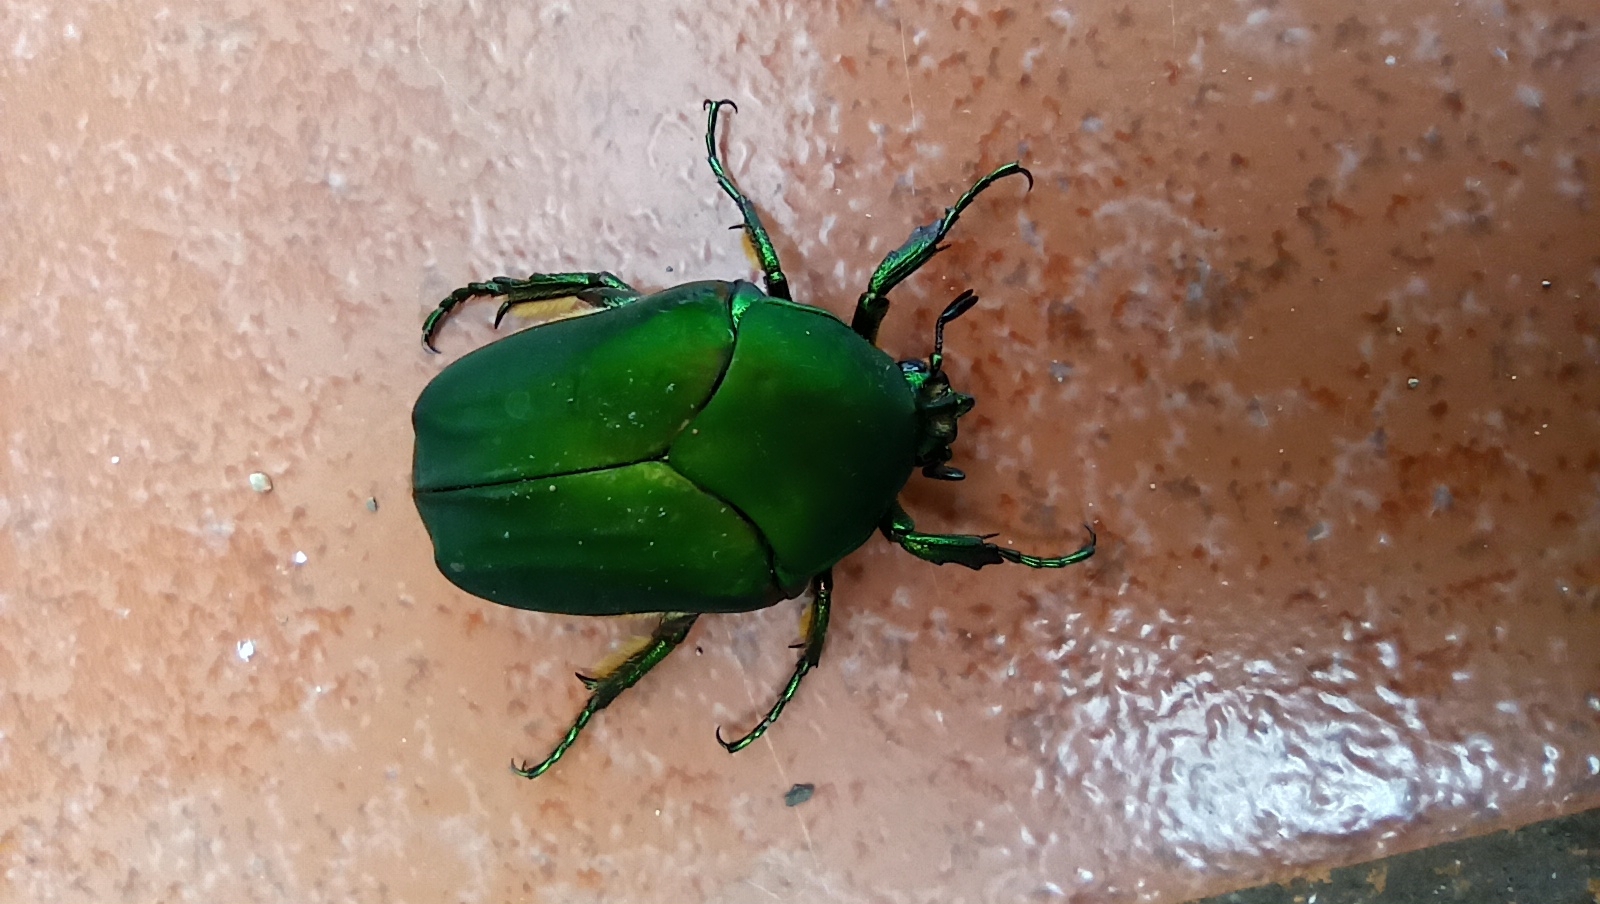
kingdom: Animalia
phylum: Arthropoda
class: Insecta
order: Coleoptera
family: Scarabaeidae
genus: Cotinis
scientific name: Cotinis mutabilis
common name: Figeater beetle
